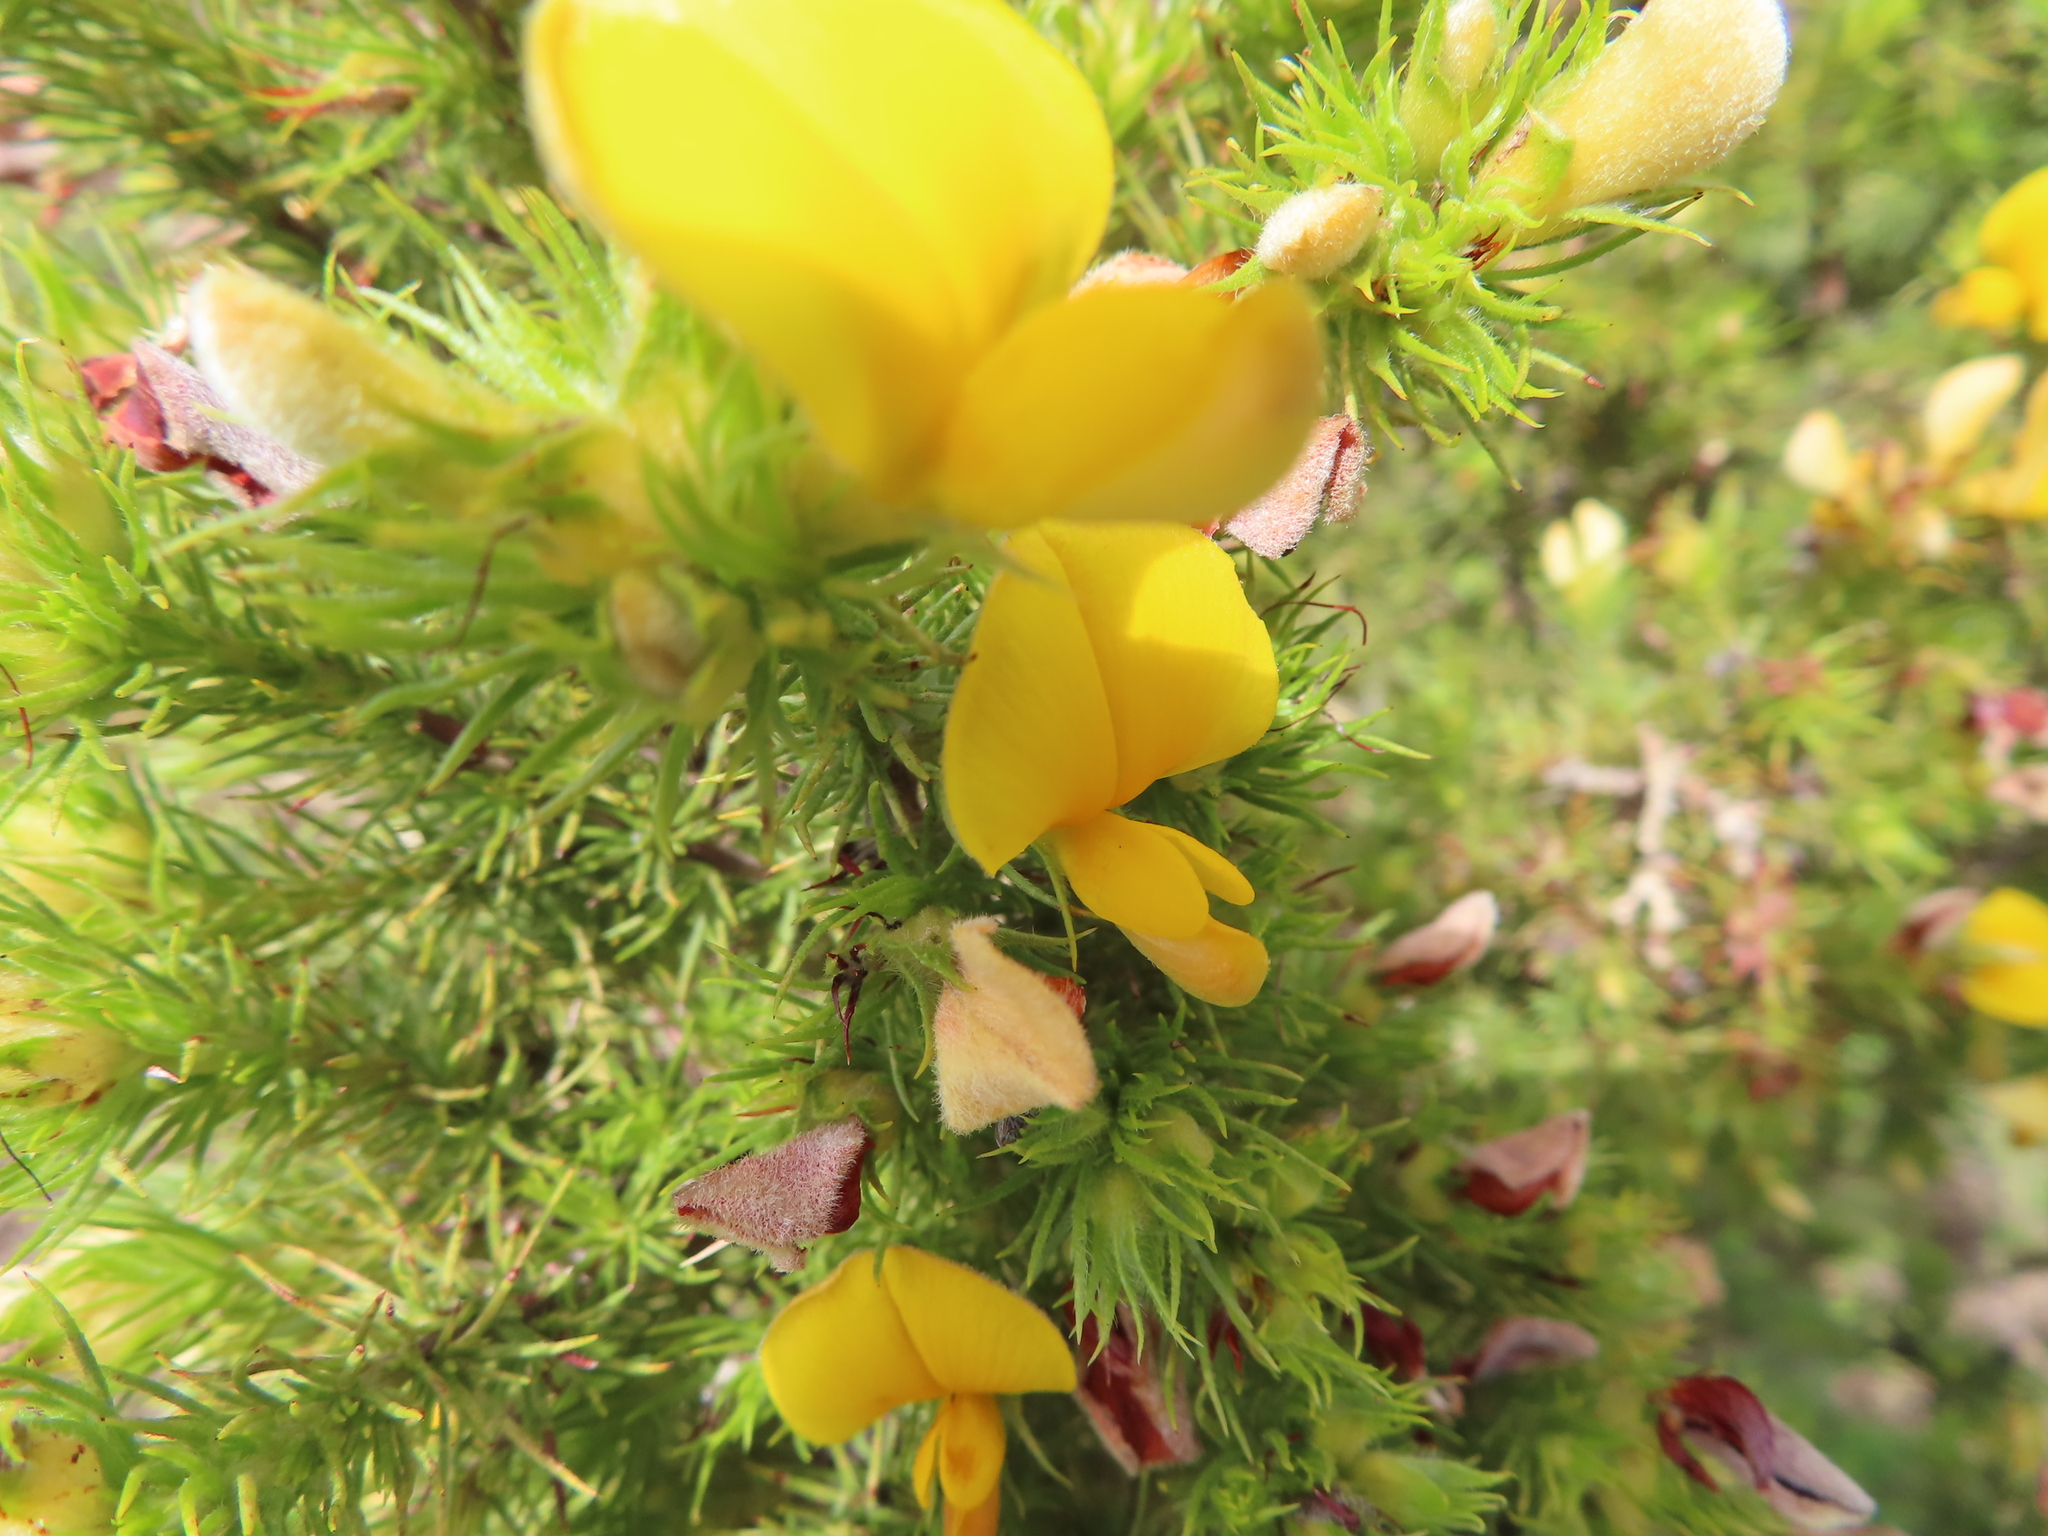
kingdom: Plantae
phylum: Tracheophyta
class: Magnoliopsida
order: Fabales
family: Fabaceae
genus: Aspalathus
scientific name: Aspalathus neglecta
